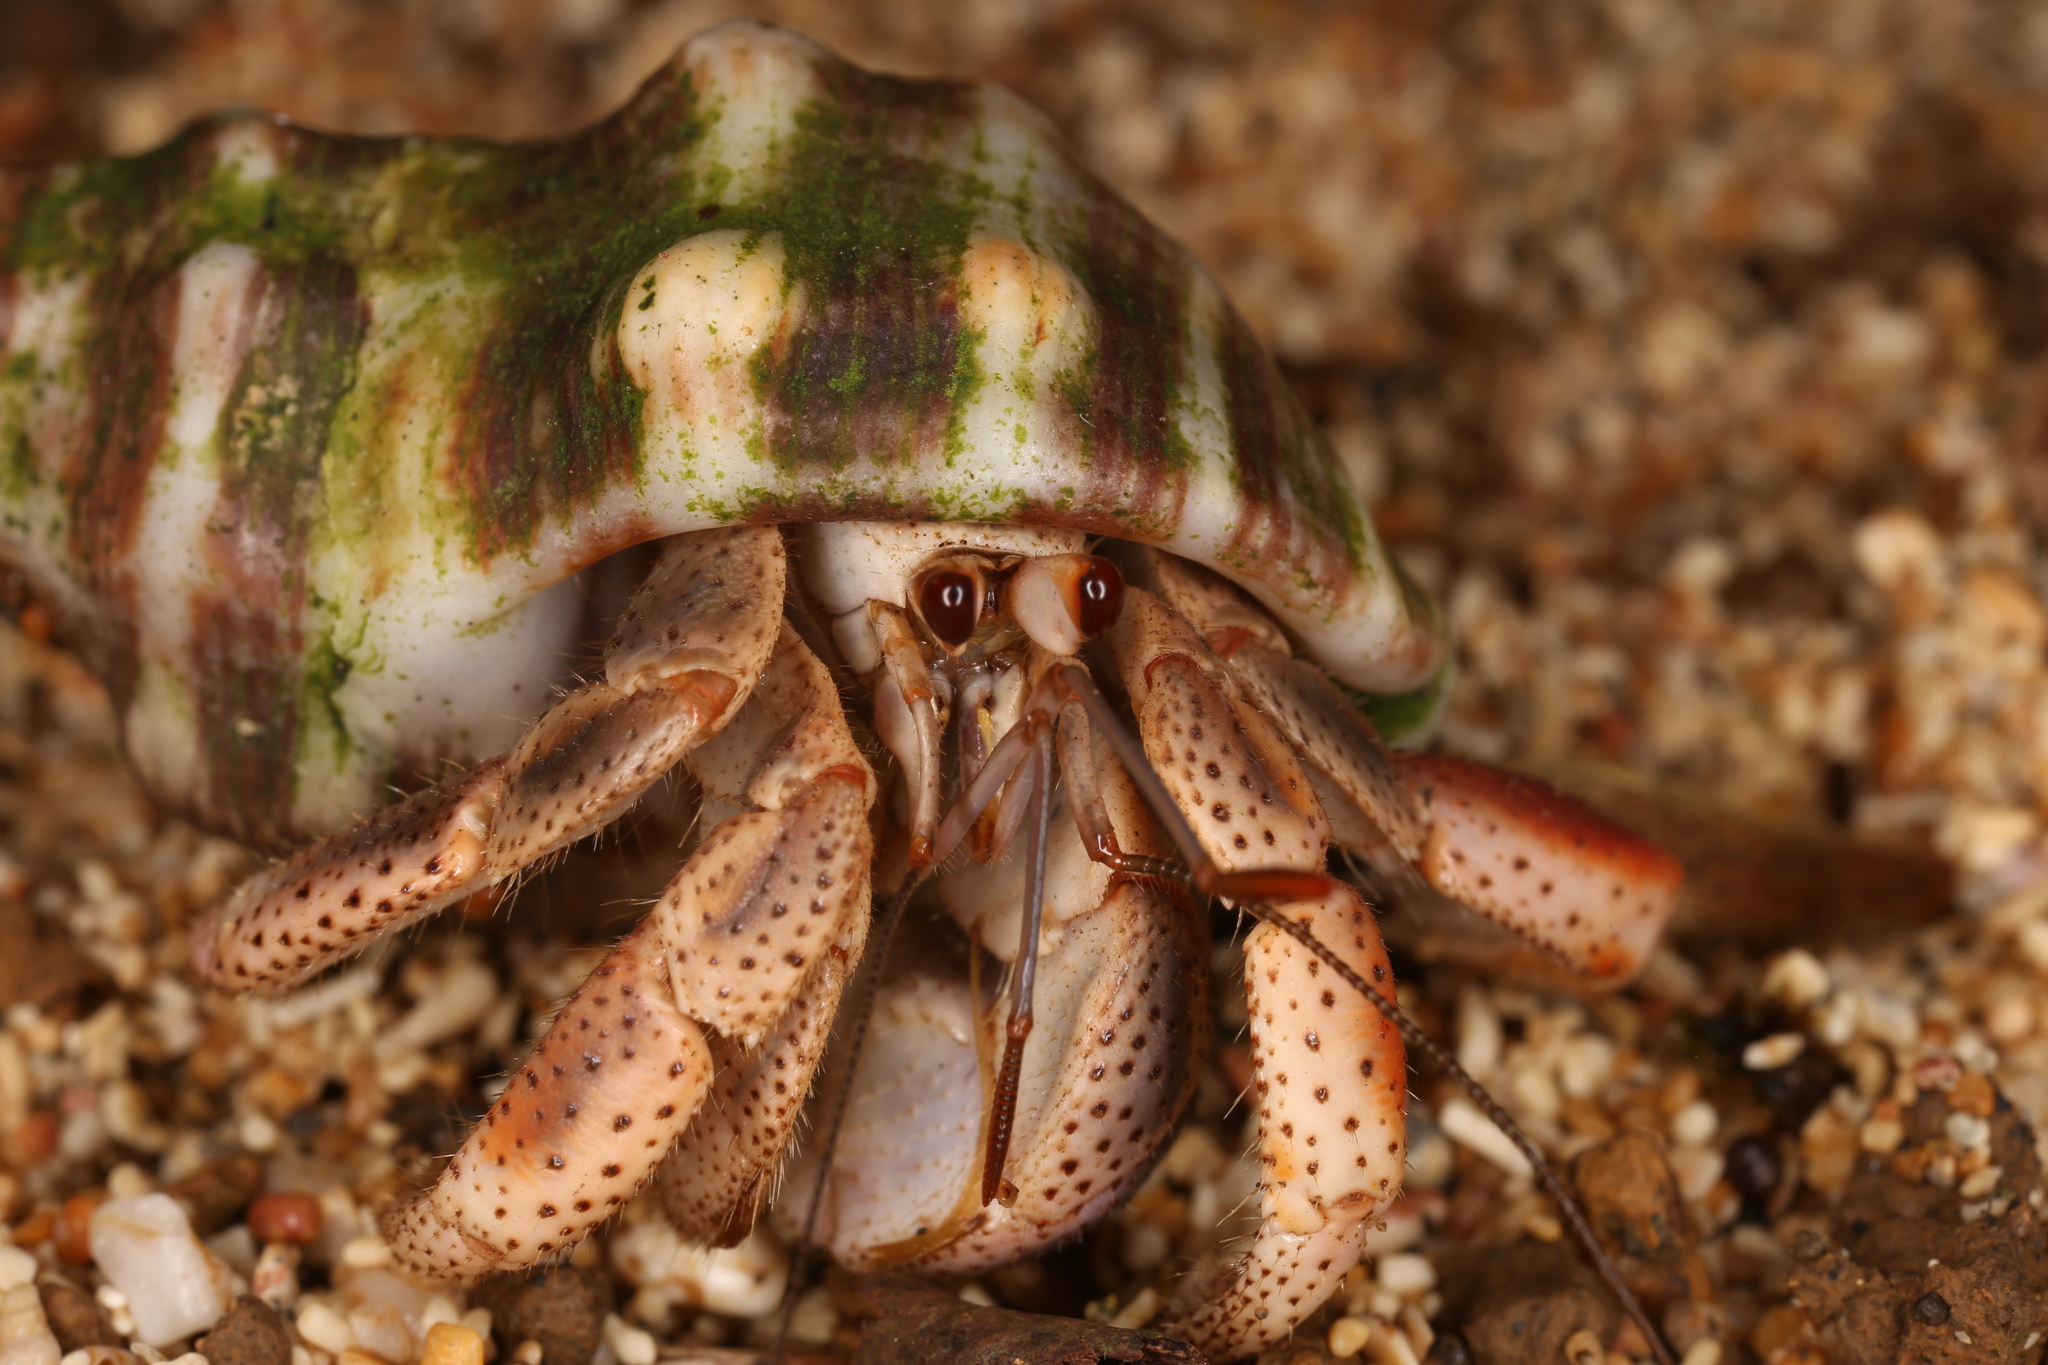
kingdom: Animalia
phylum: Arthropoda
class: Malacostraca
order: Decapoda
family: Coenobitidae
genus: Coenobita
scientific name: Coenobita clypeatus
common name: Caribbean hermit crab
